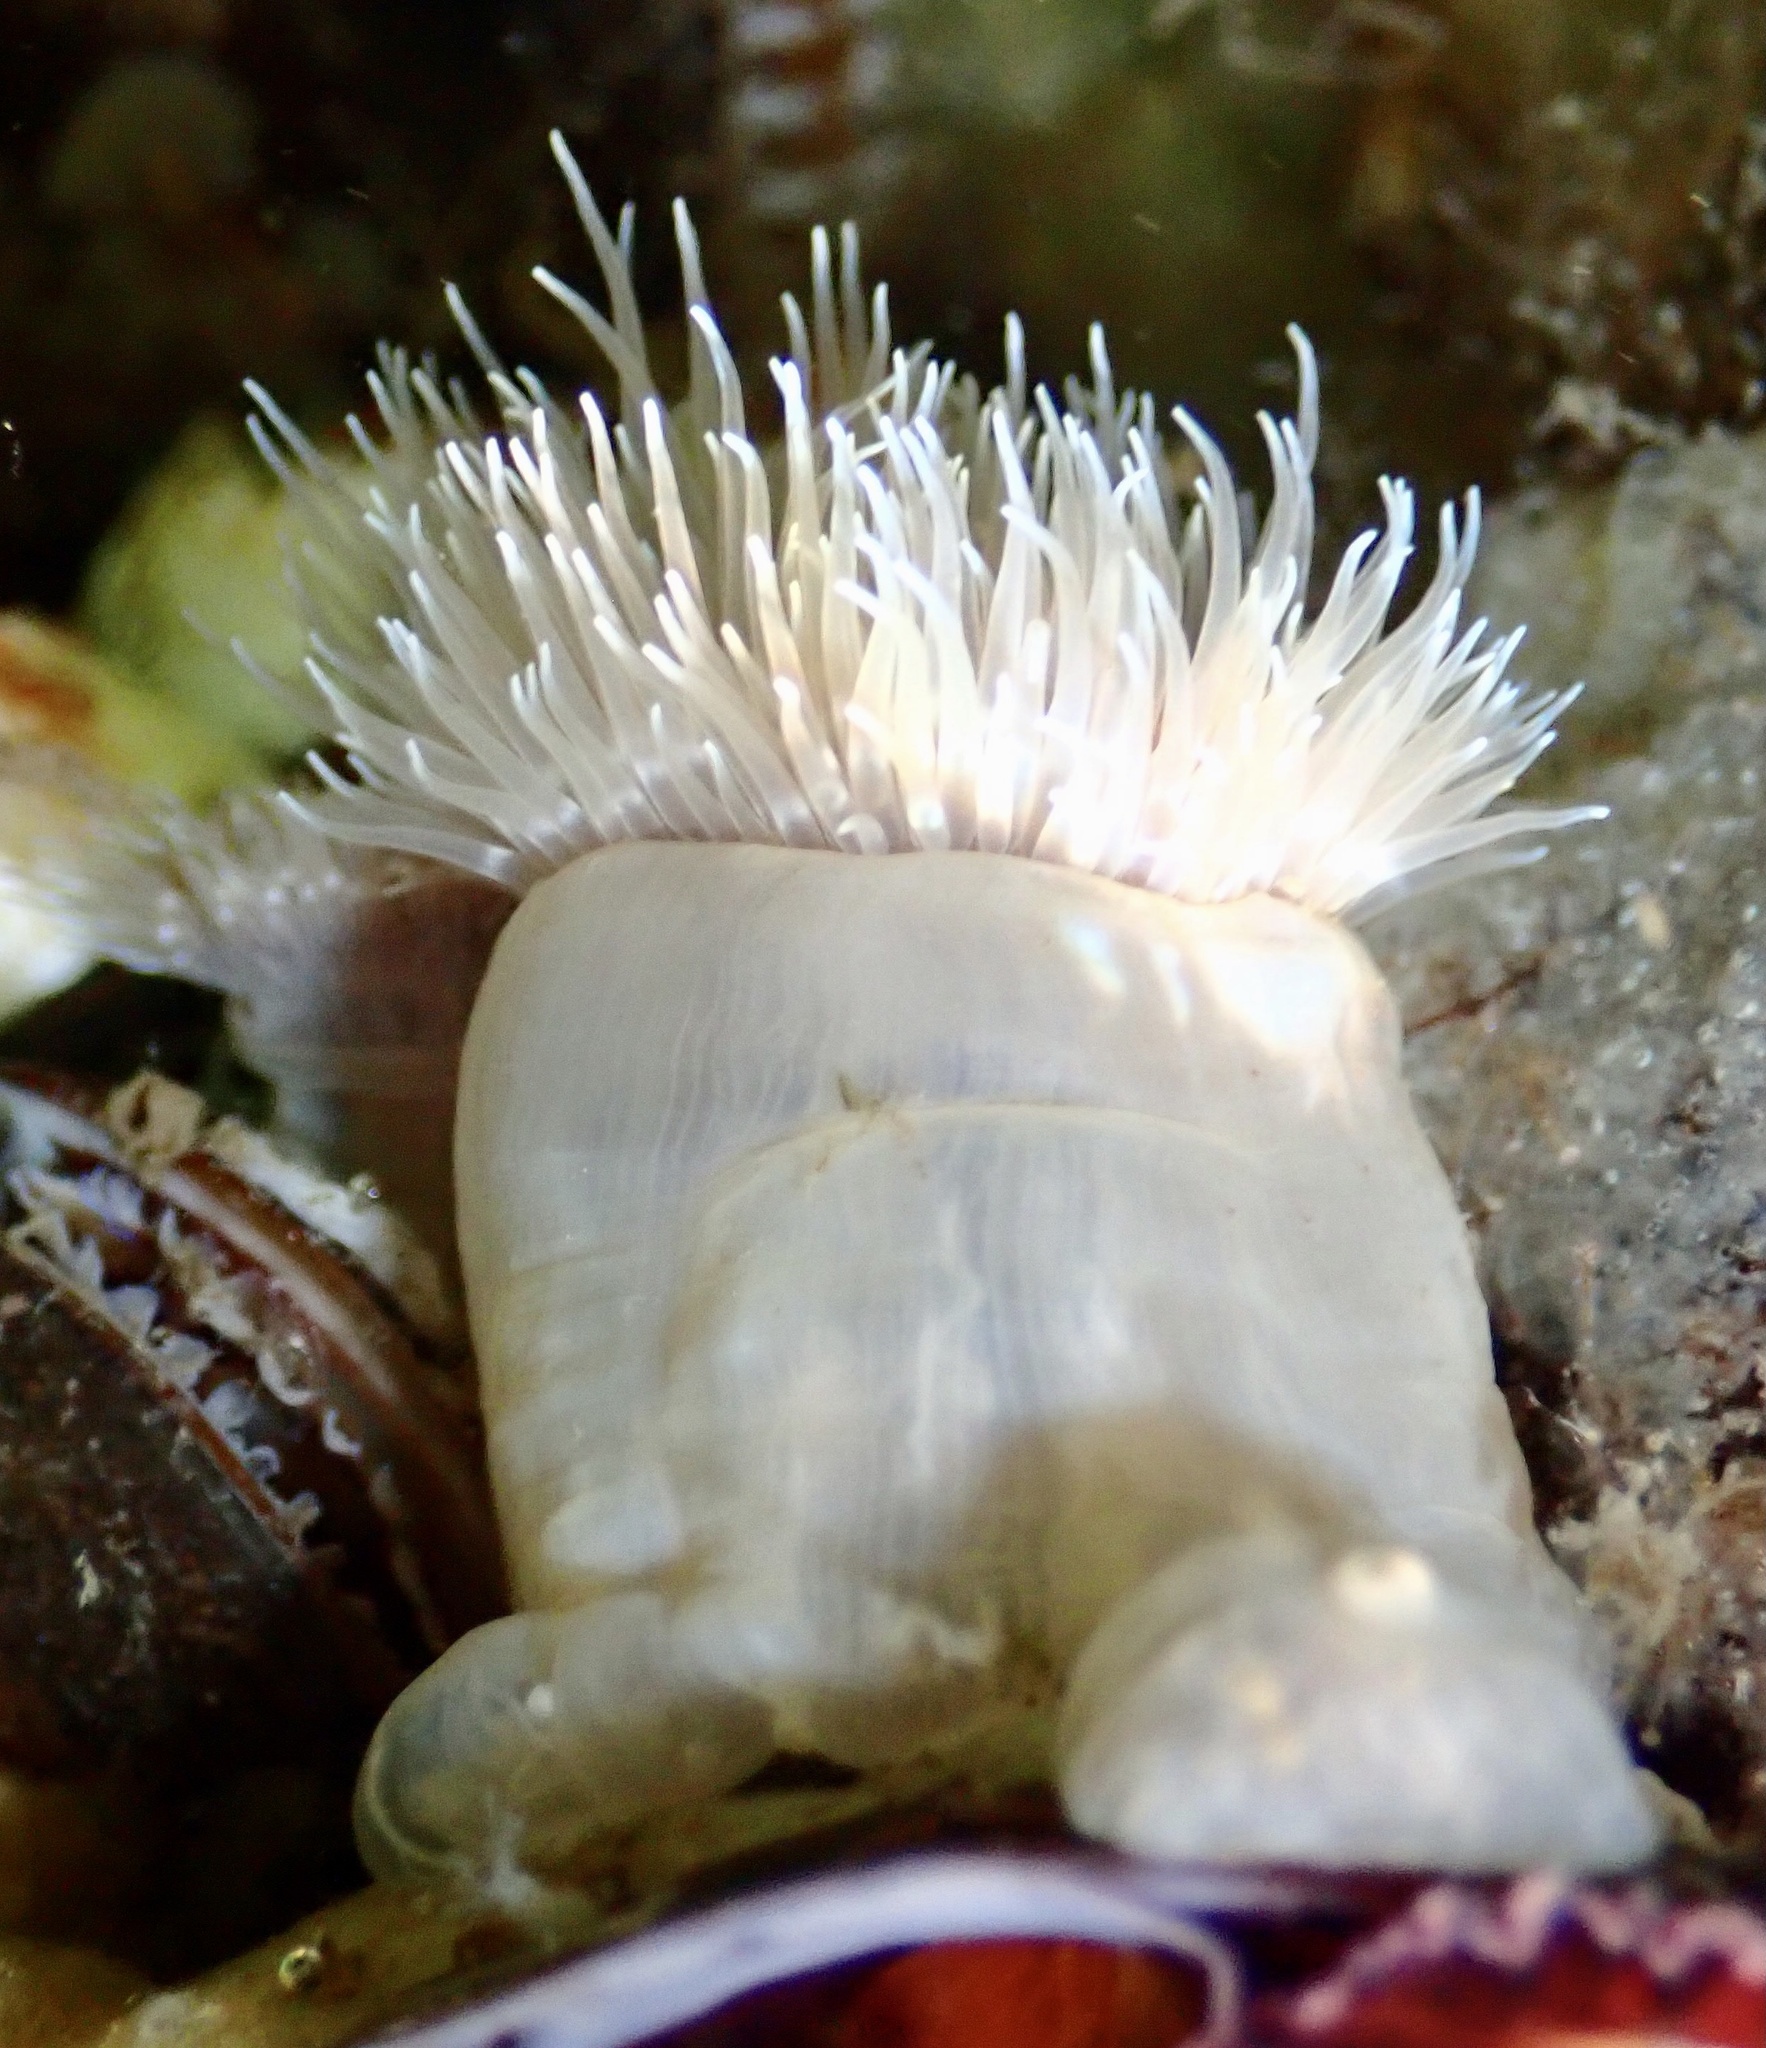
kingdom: Animalia
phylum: Cnidaria
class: Anthozoa
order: Actiniaria
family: Metridiidae
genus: Metridium
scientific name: Metridium senile
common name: Clonal plumose anemone
